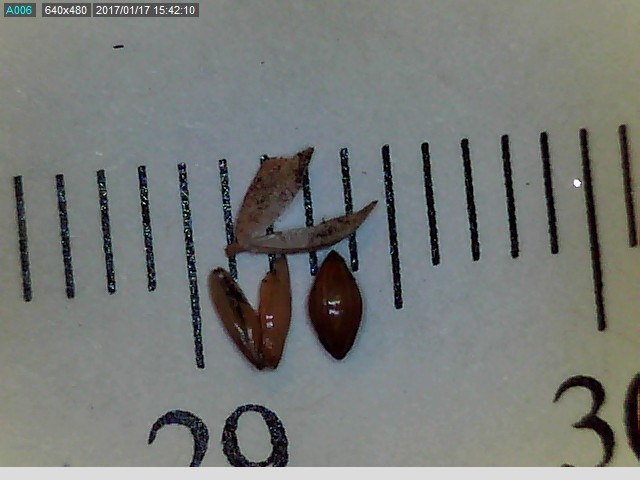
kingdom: Plantae
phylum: Tracheophyta
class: Liliopsida
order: Poales
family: Poaceae
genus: Milium
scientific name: Milium effusum
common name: Wood millet
